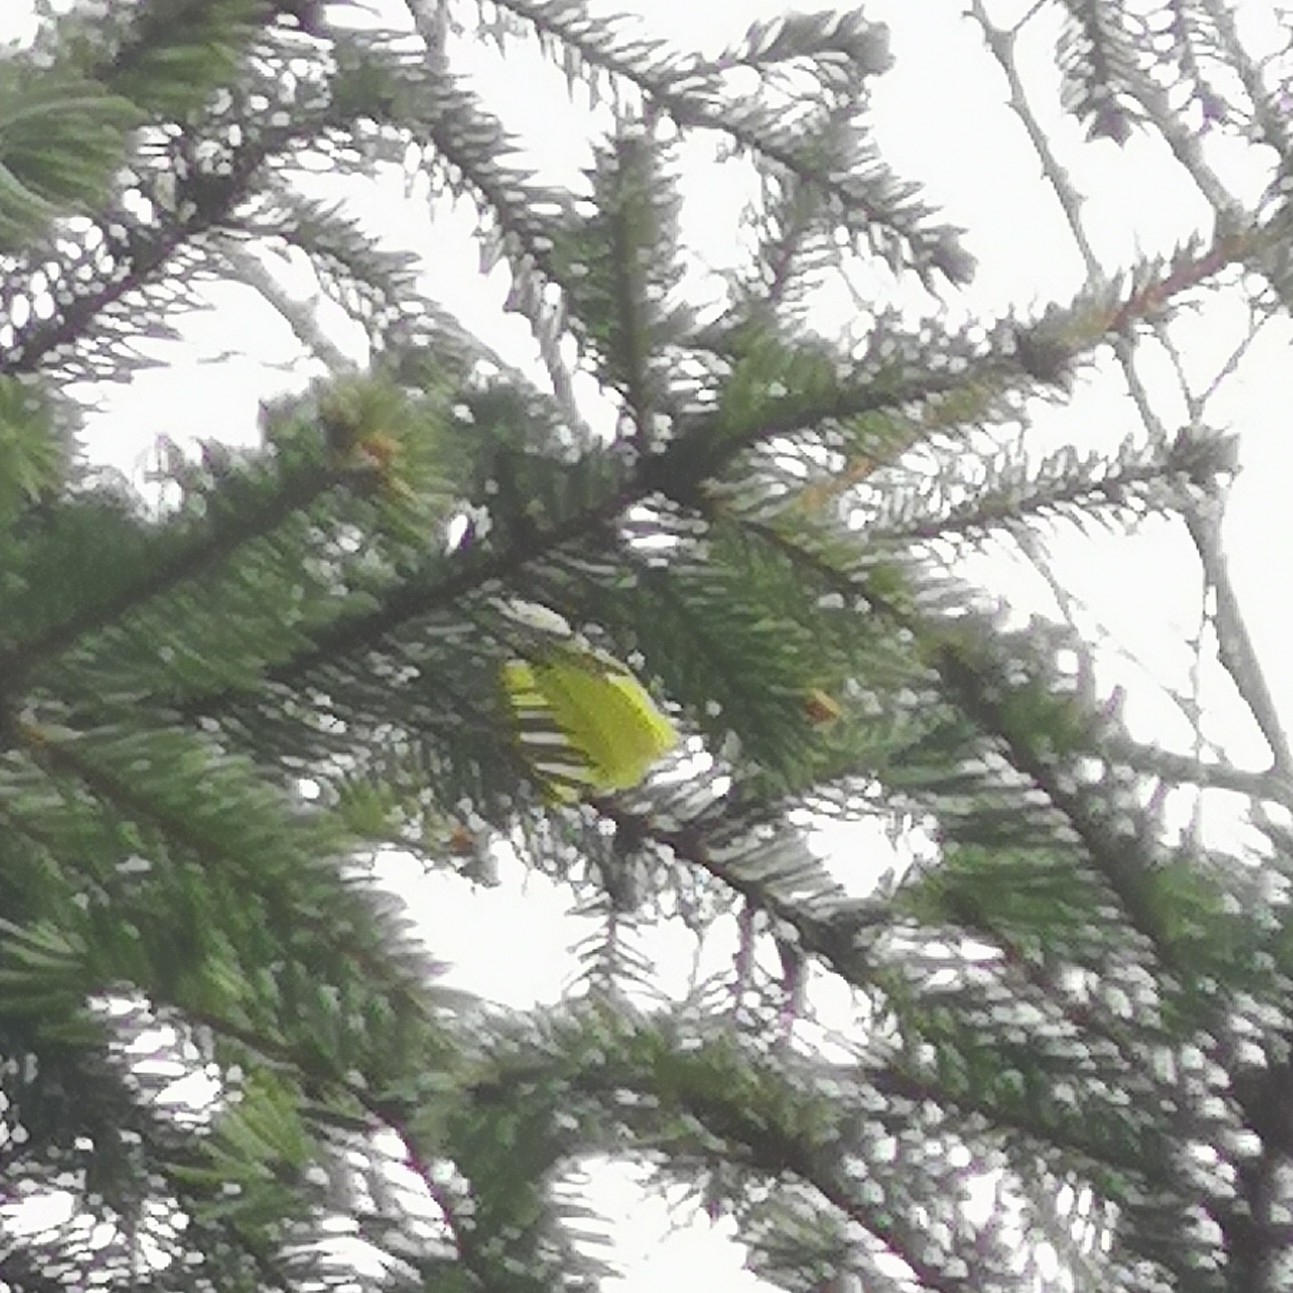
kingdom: Animalia
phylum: Arthropoda
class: Insecta
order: Lepidoptera
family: Pieridae
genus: Gonepteryx
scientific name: Gonepteryx rhamni
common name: Brimstone
